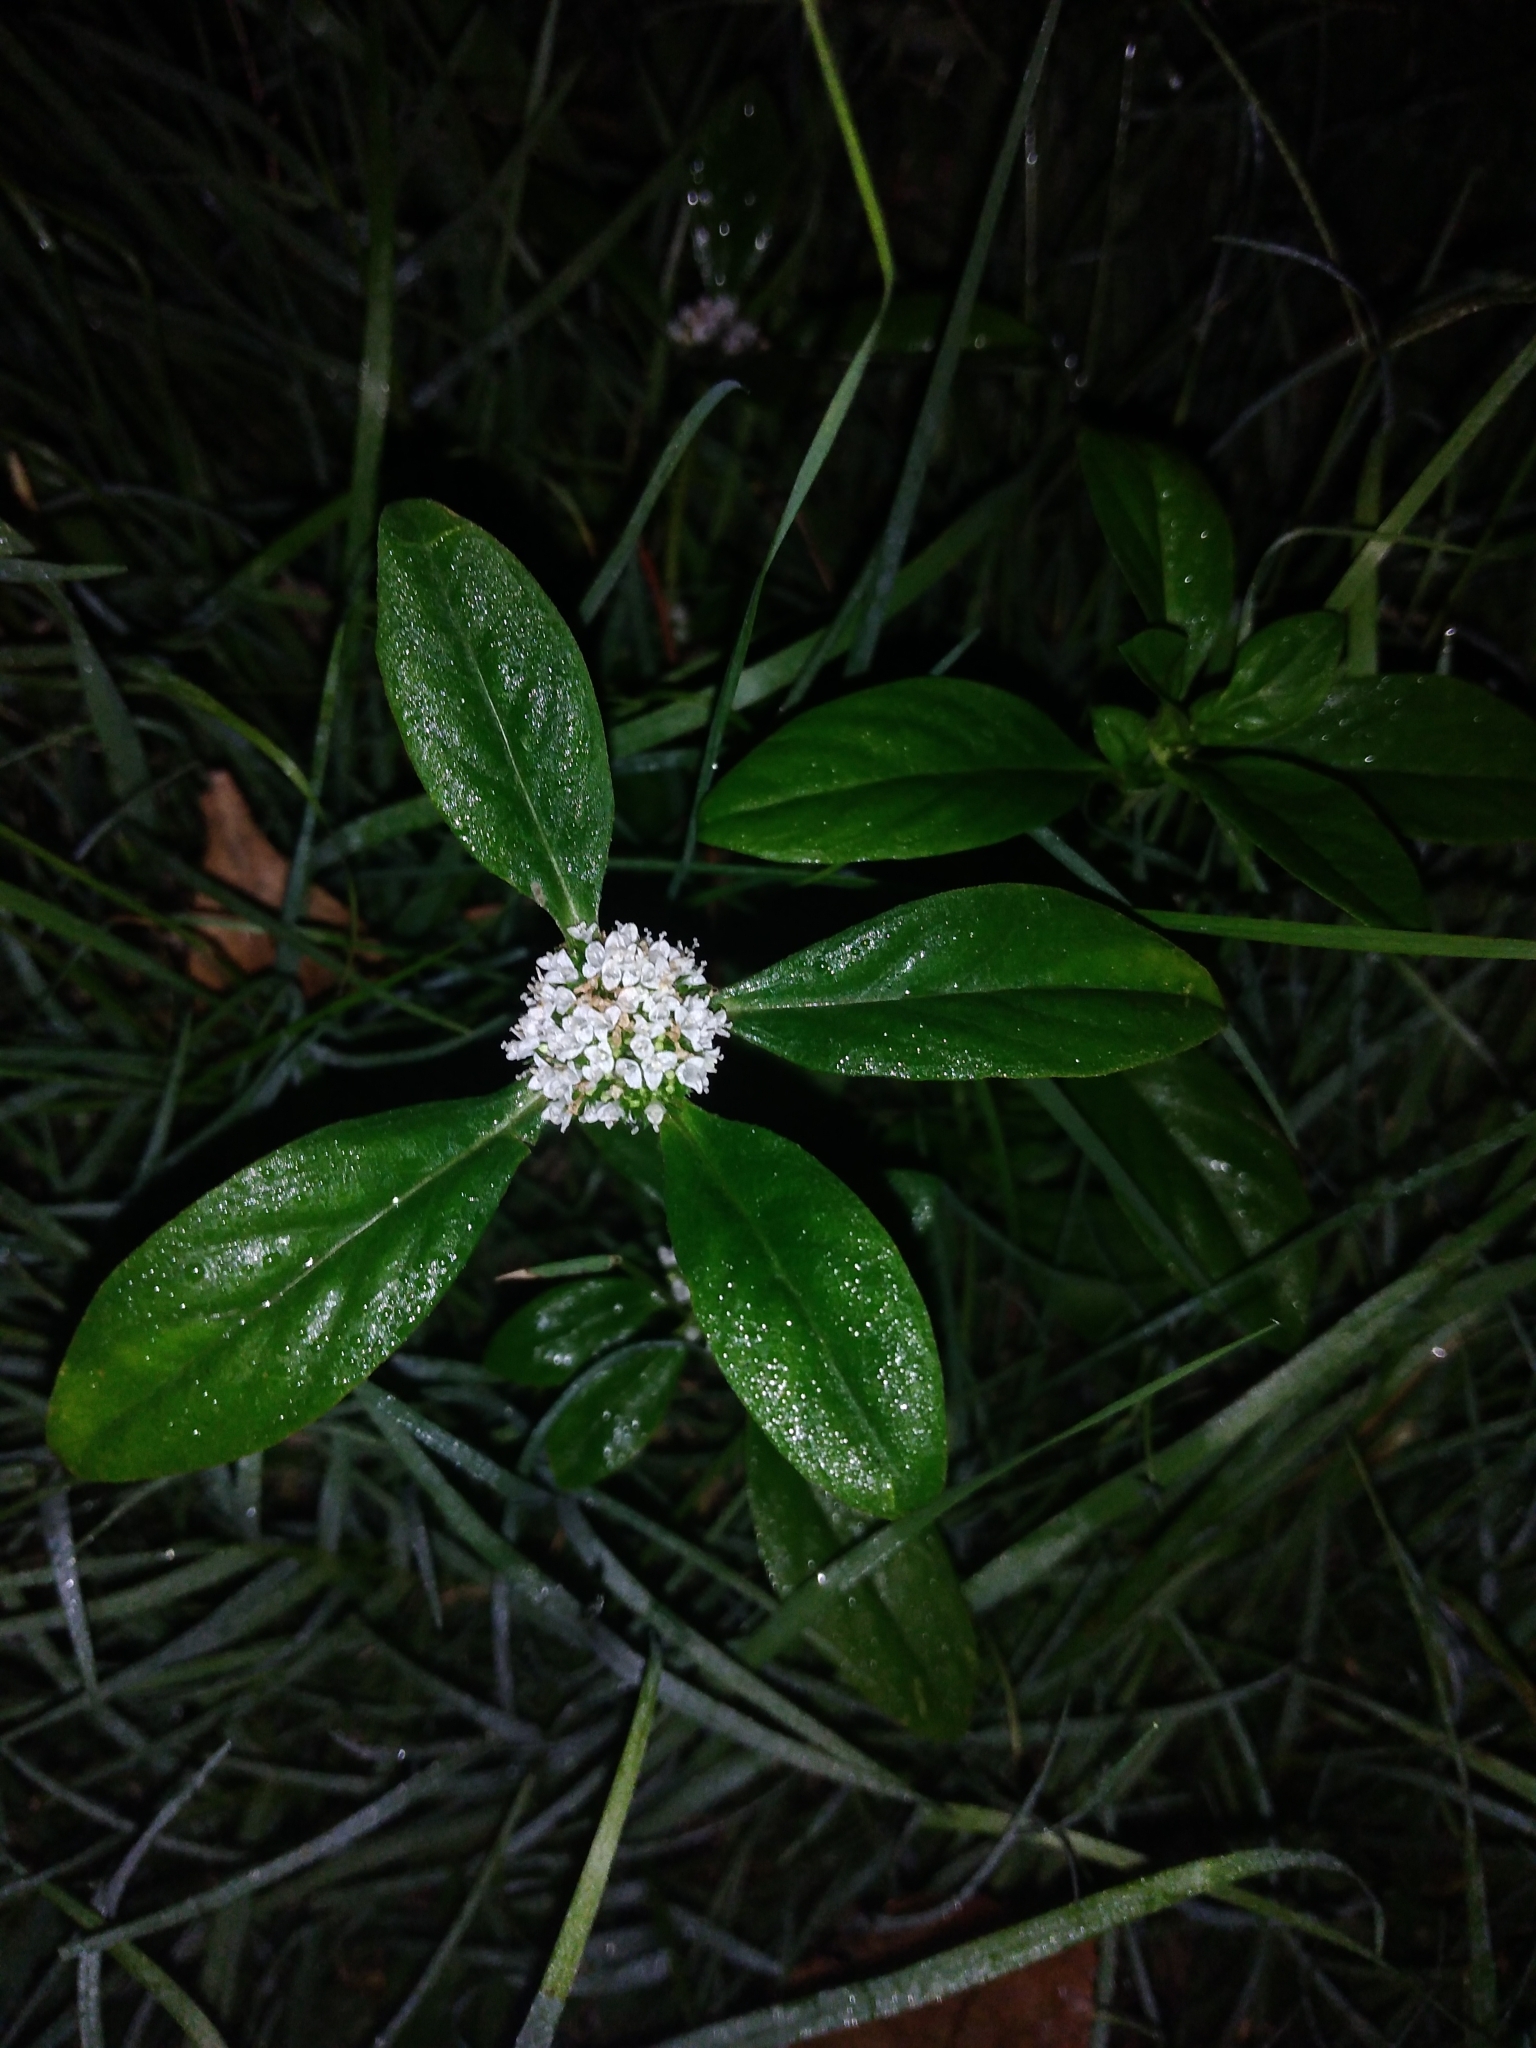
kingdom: Plantae
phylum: Tracheophyta
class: Magnoliopsida
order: Gentianales
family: Rubiaceae
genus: Spermacoce
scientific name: Spermacoce dasycephala
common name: False buttonweed
